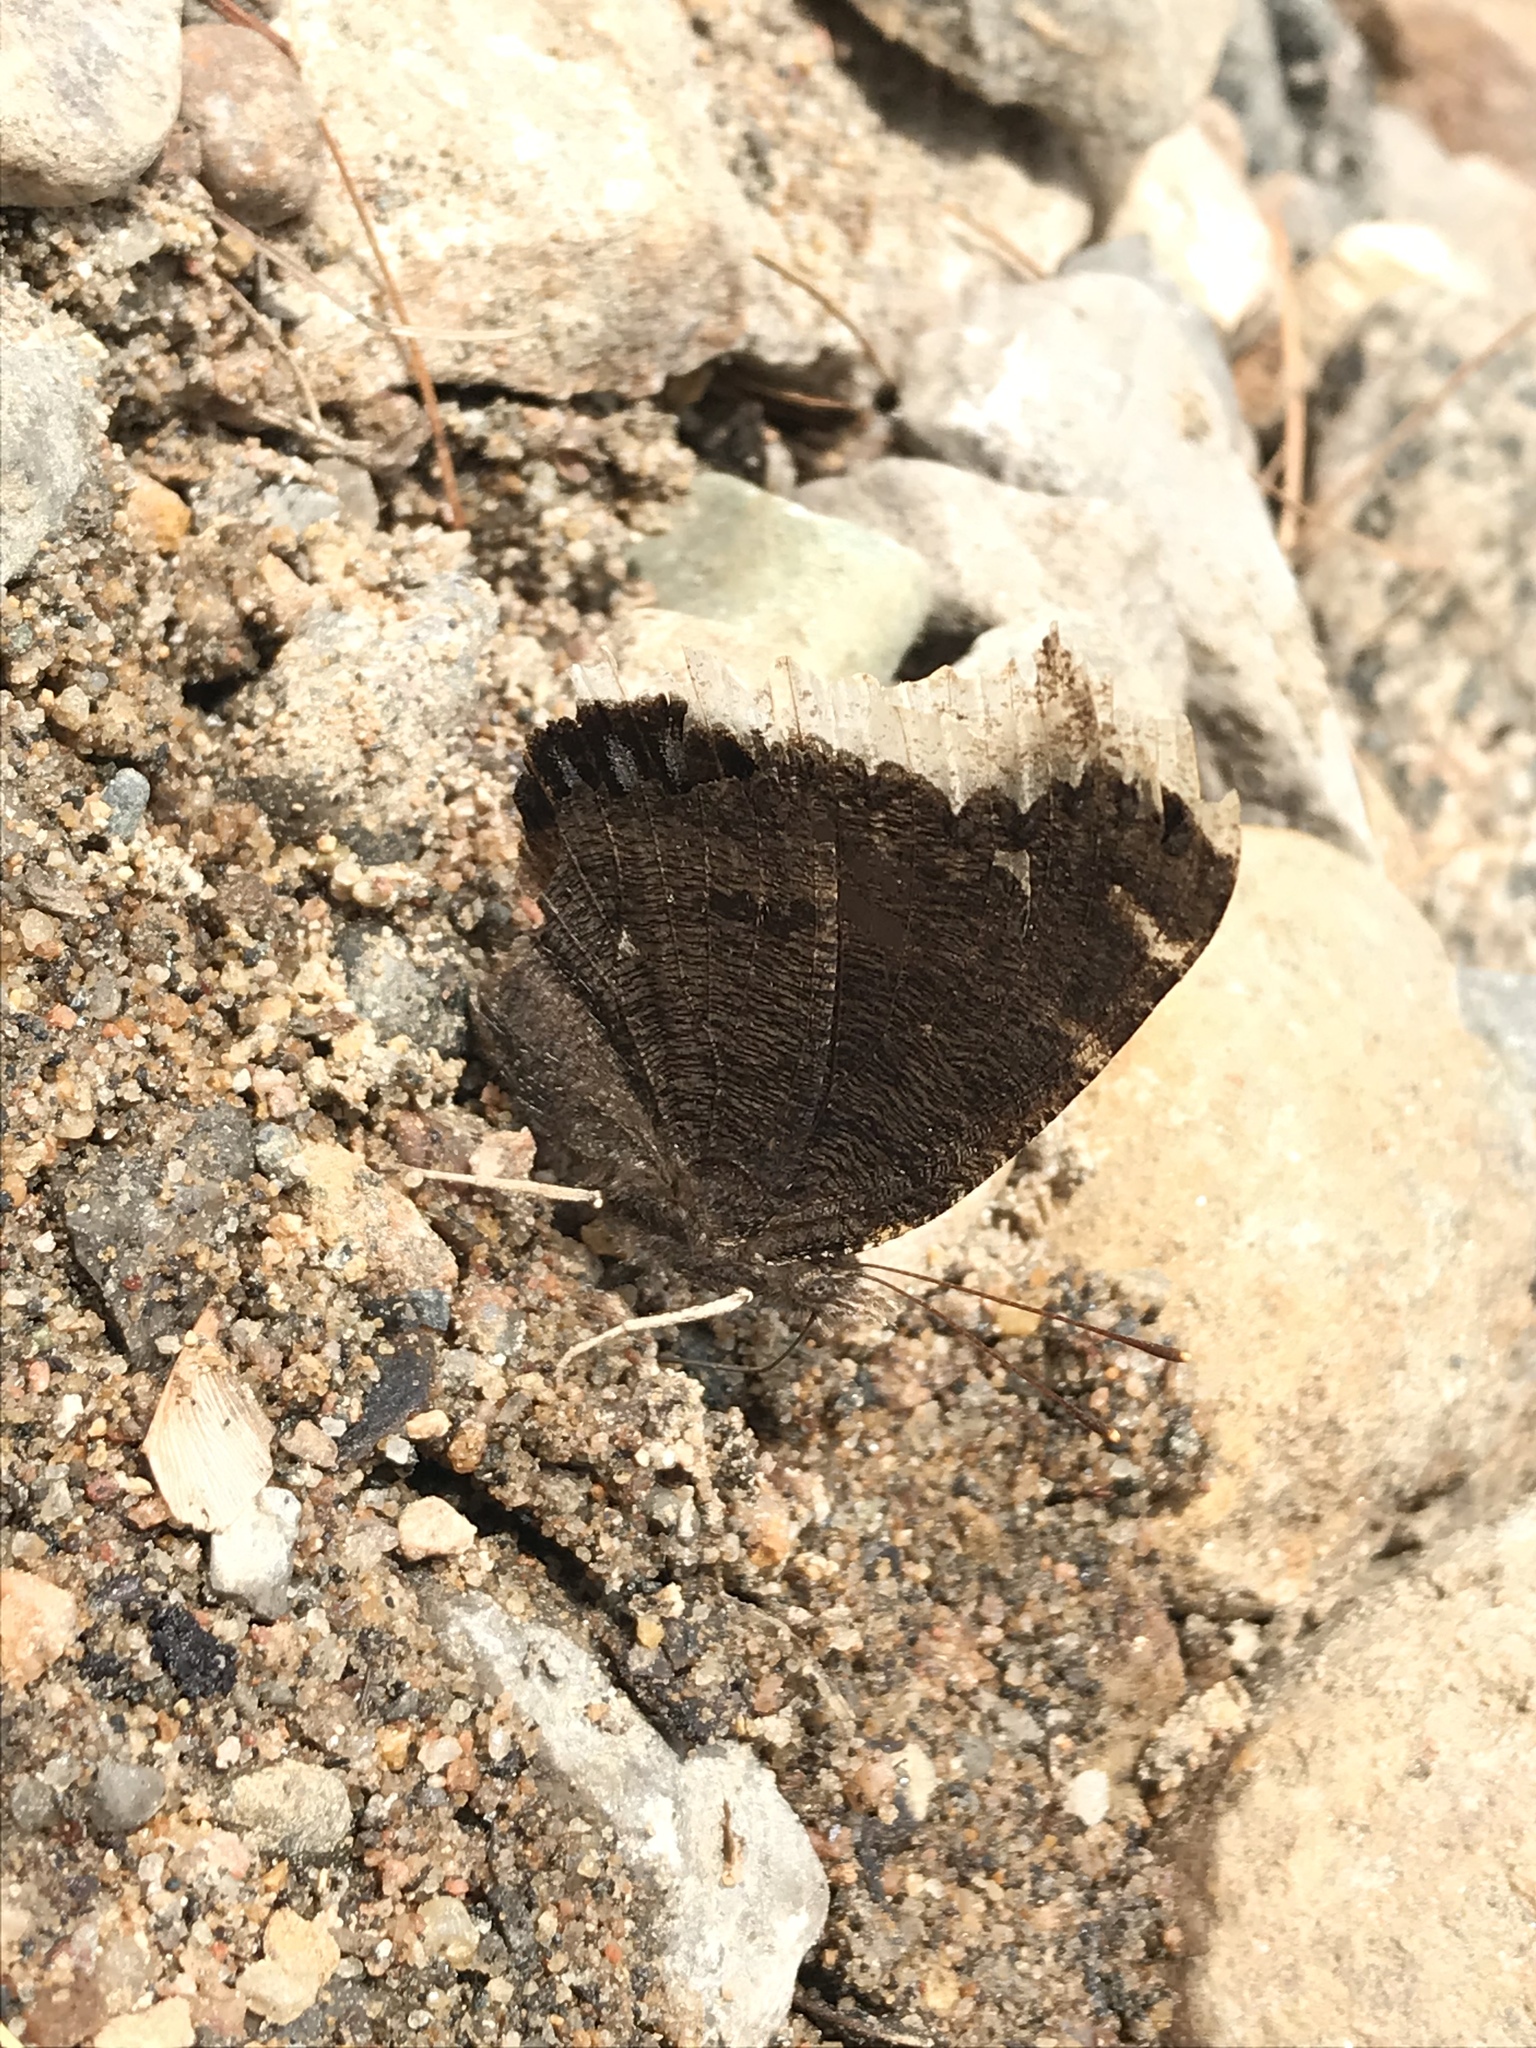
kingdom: Animalia
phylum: Arthropoda
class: Insecta
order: Lepidoptera
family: Nymphalidae
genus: Nymphalis
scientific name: Nymphalis antiopa
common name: Camberwell beauty
